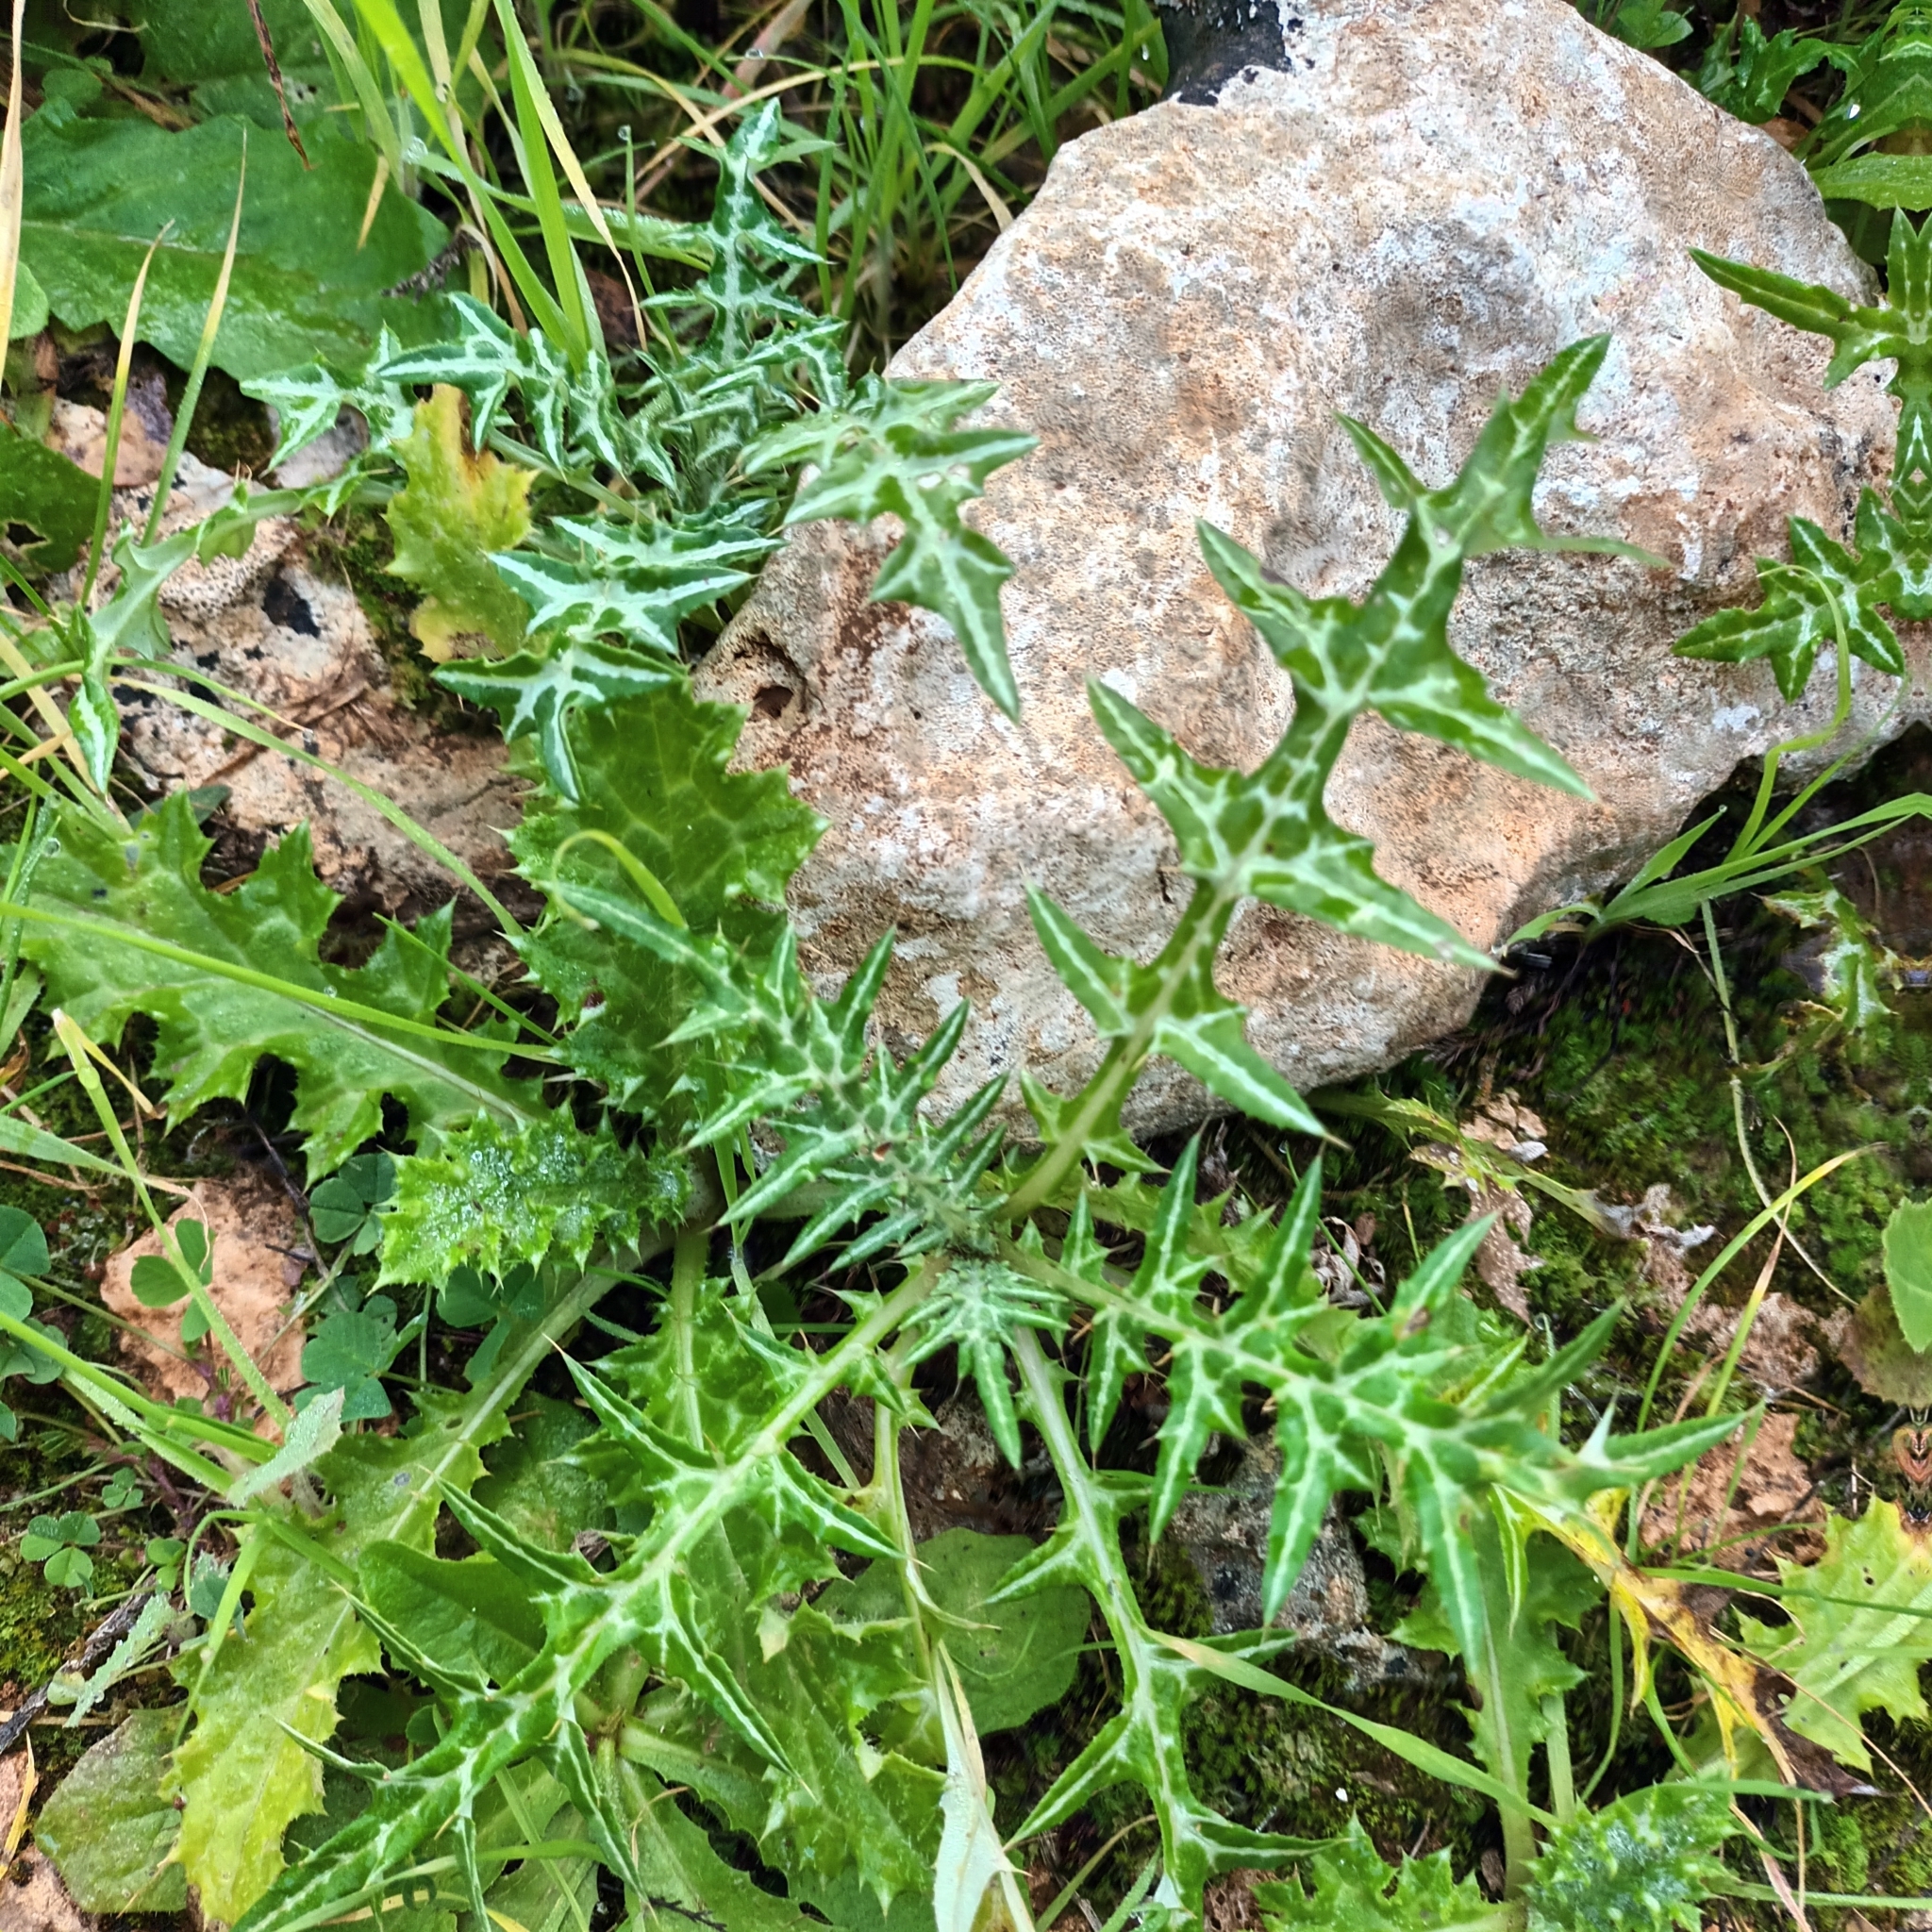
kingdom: Plantae
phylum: Tracheophyta
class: Magnoliopsida
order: Asterales
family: Asteraceae
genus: Galactites
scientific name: Galactites tomentosa
